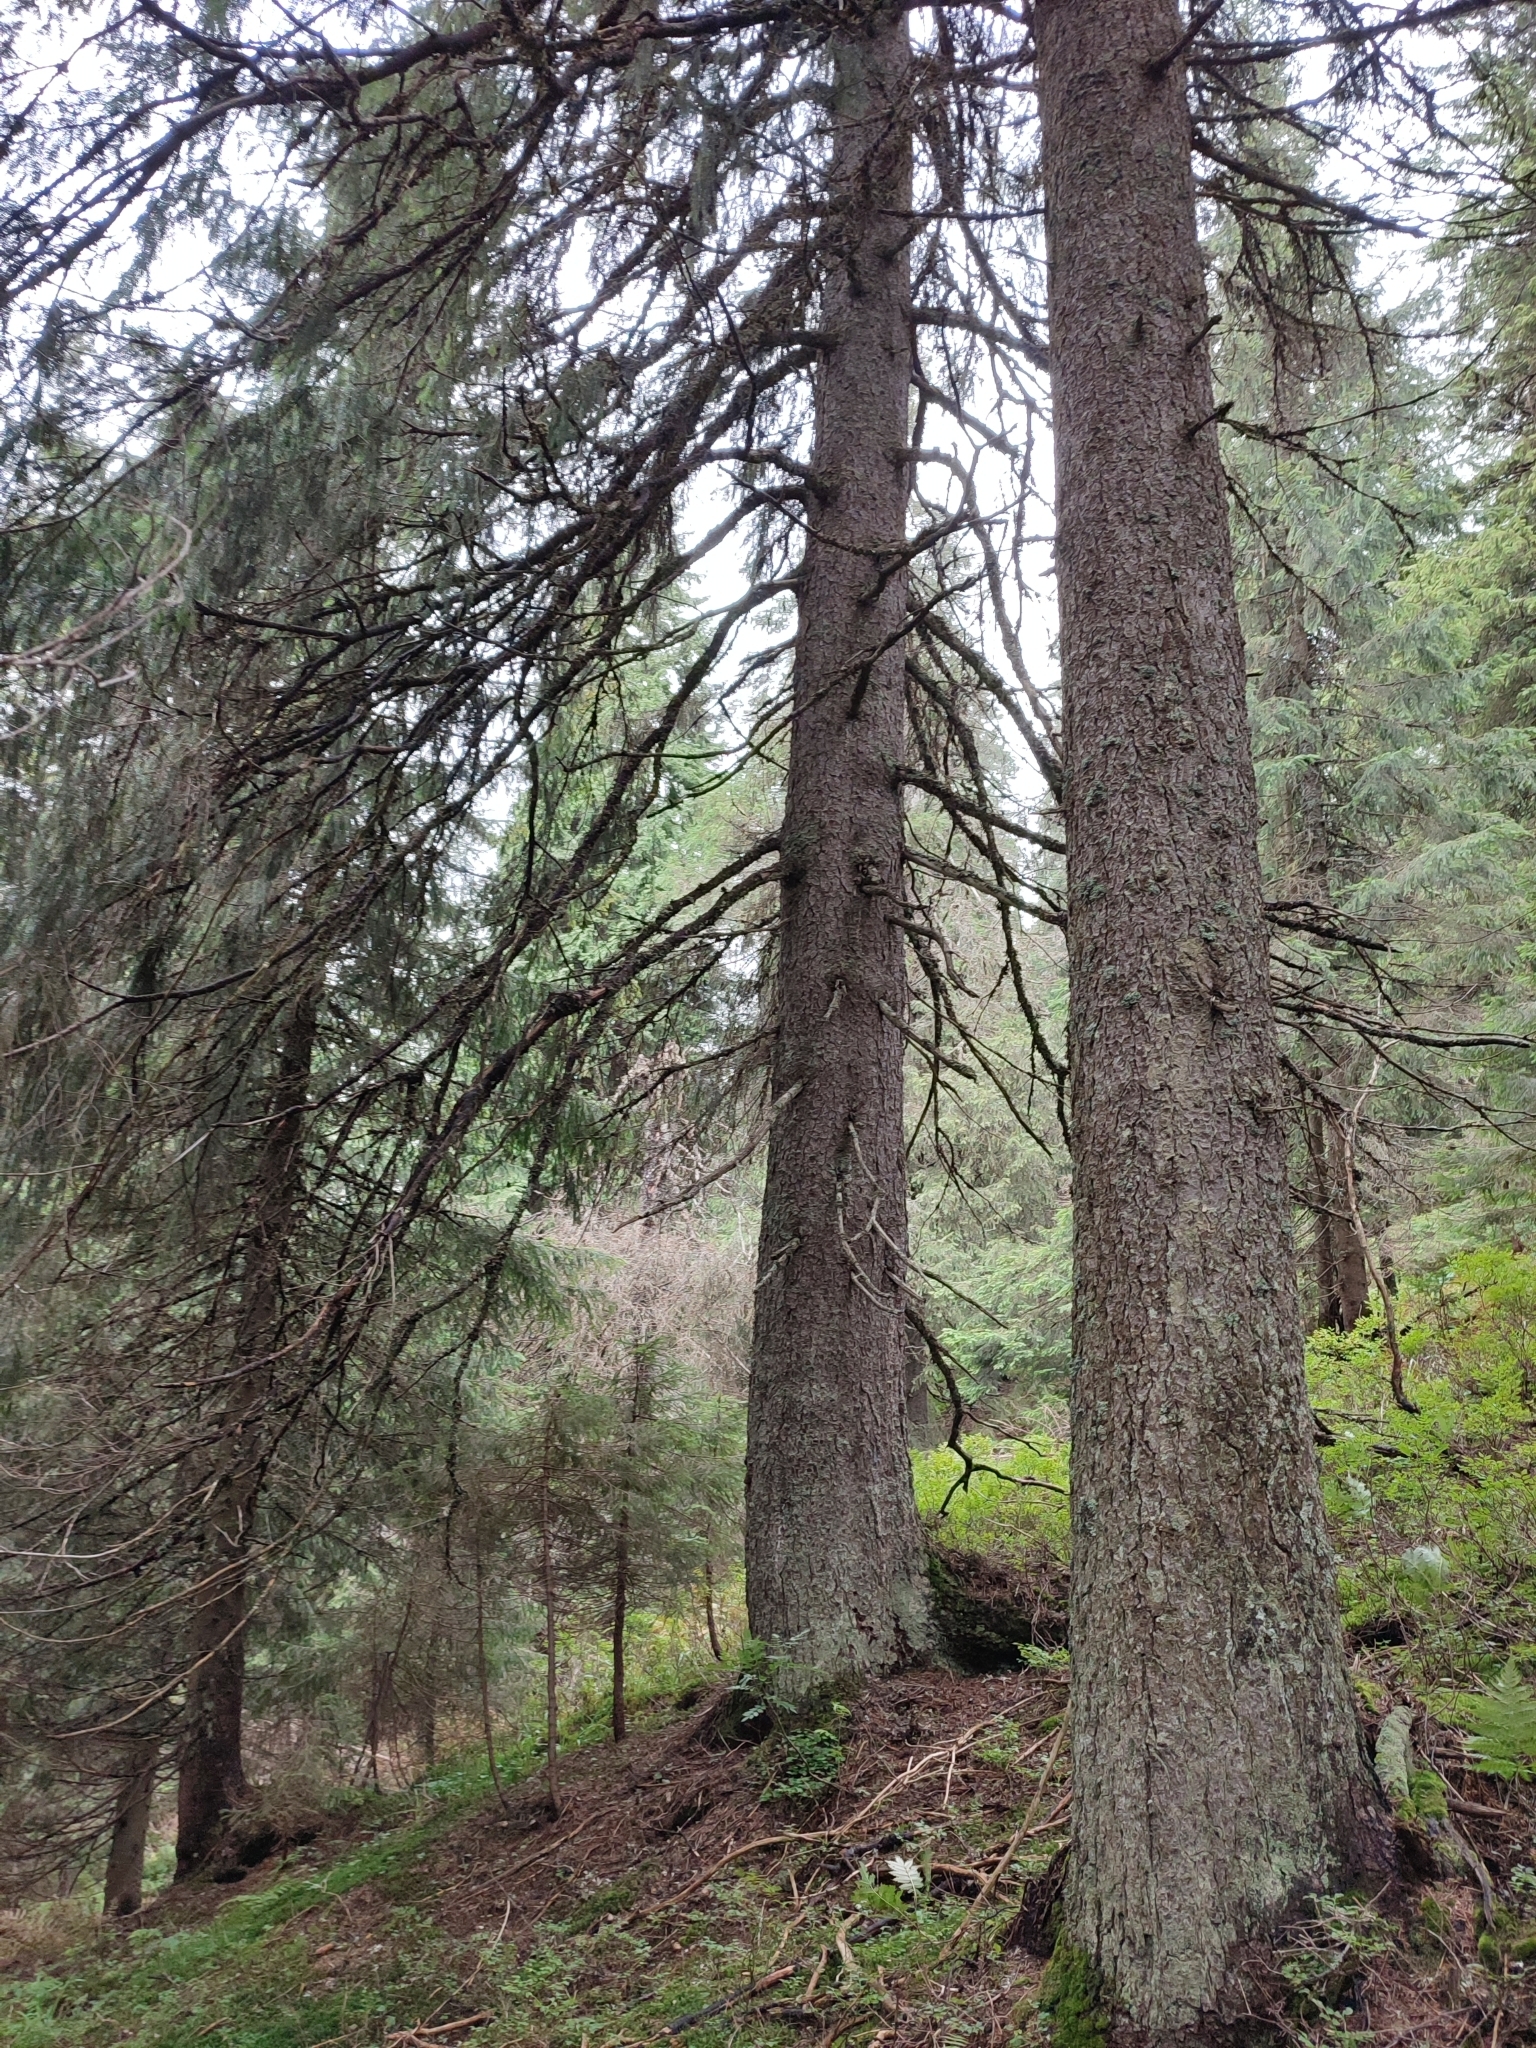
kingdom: Plantae
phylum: Tracheophyta
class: Pinopsida
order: Pinales
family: Pinaceae
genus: Picea
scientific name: Picea abies
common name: Norway spruce
